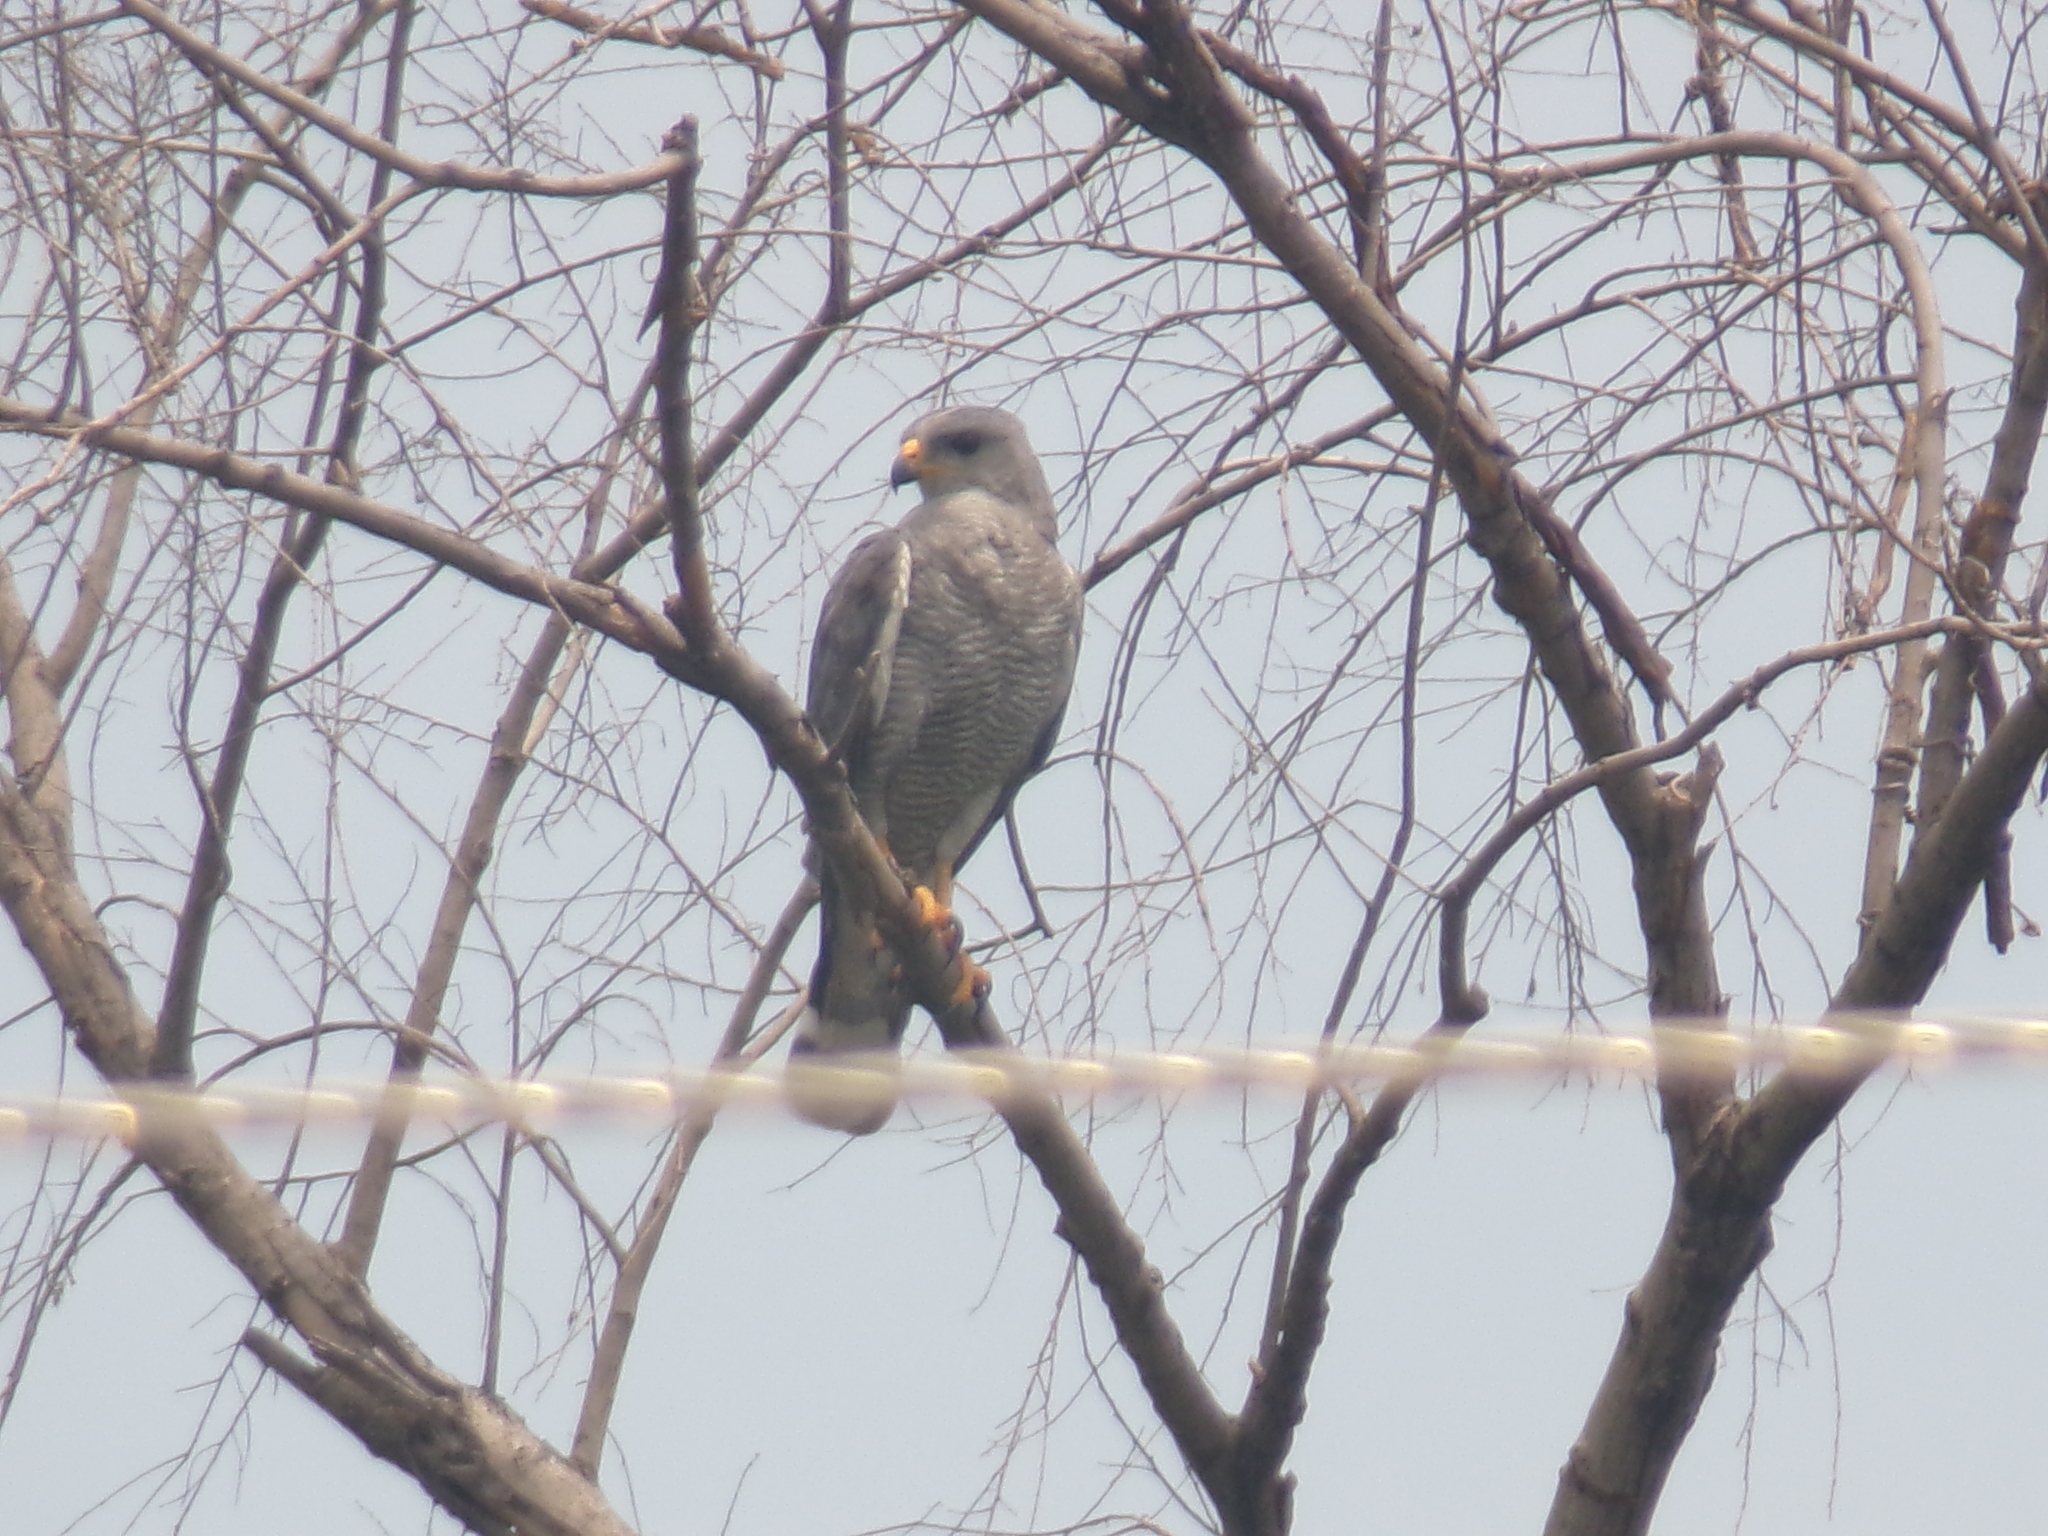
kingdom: Animalia
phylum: Chordata
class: Aves
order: Accipitriformes
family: Accipitridae
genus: Buteo
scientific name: Buteo nitidus
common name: Grey-lined hawk
